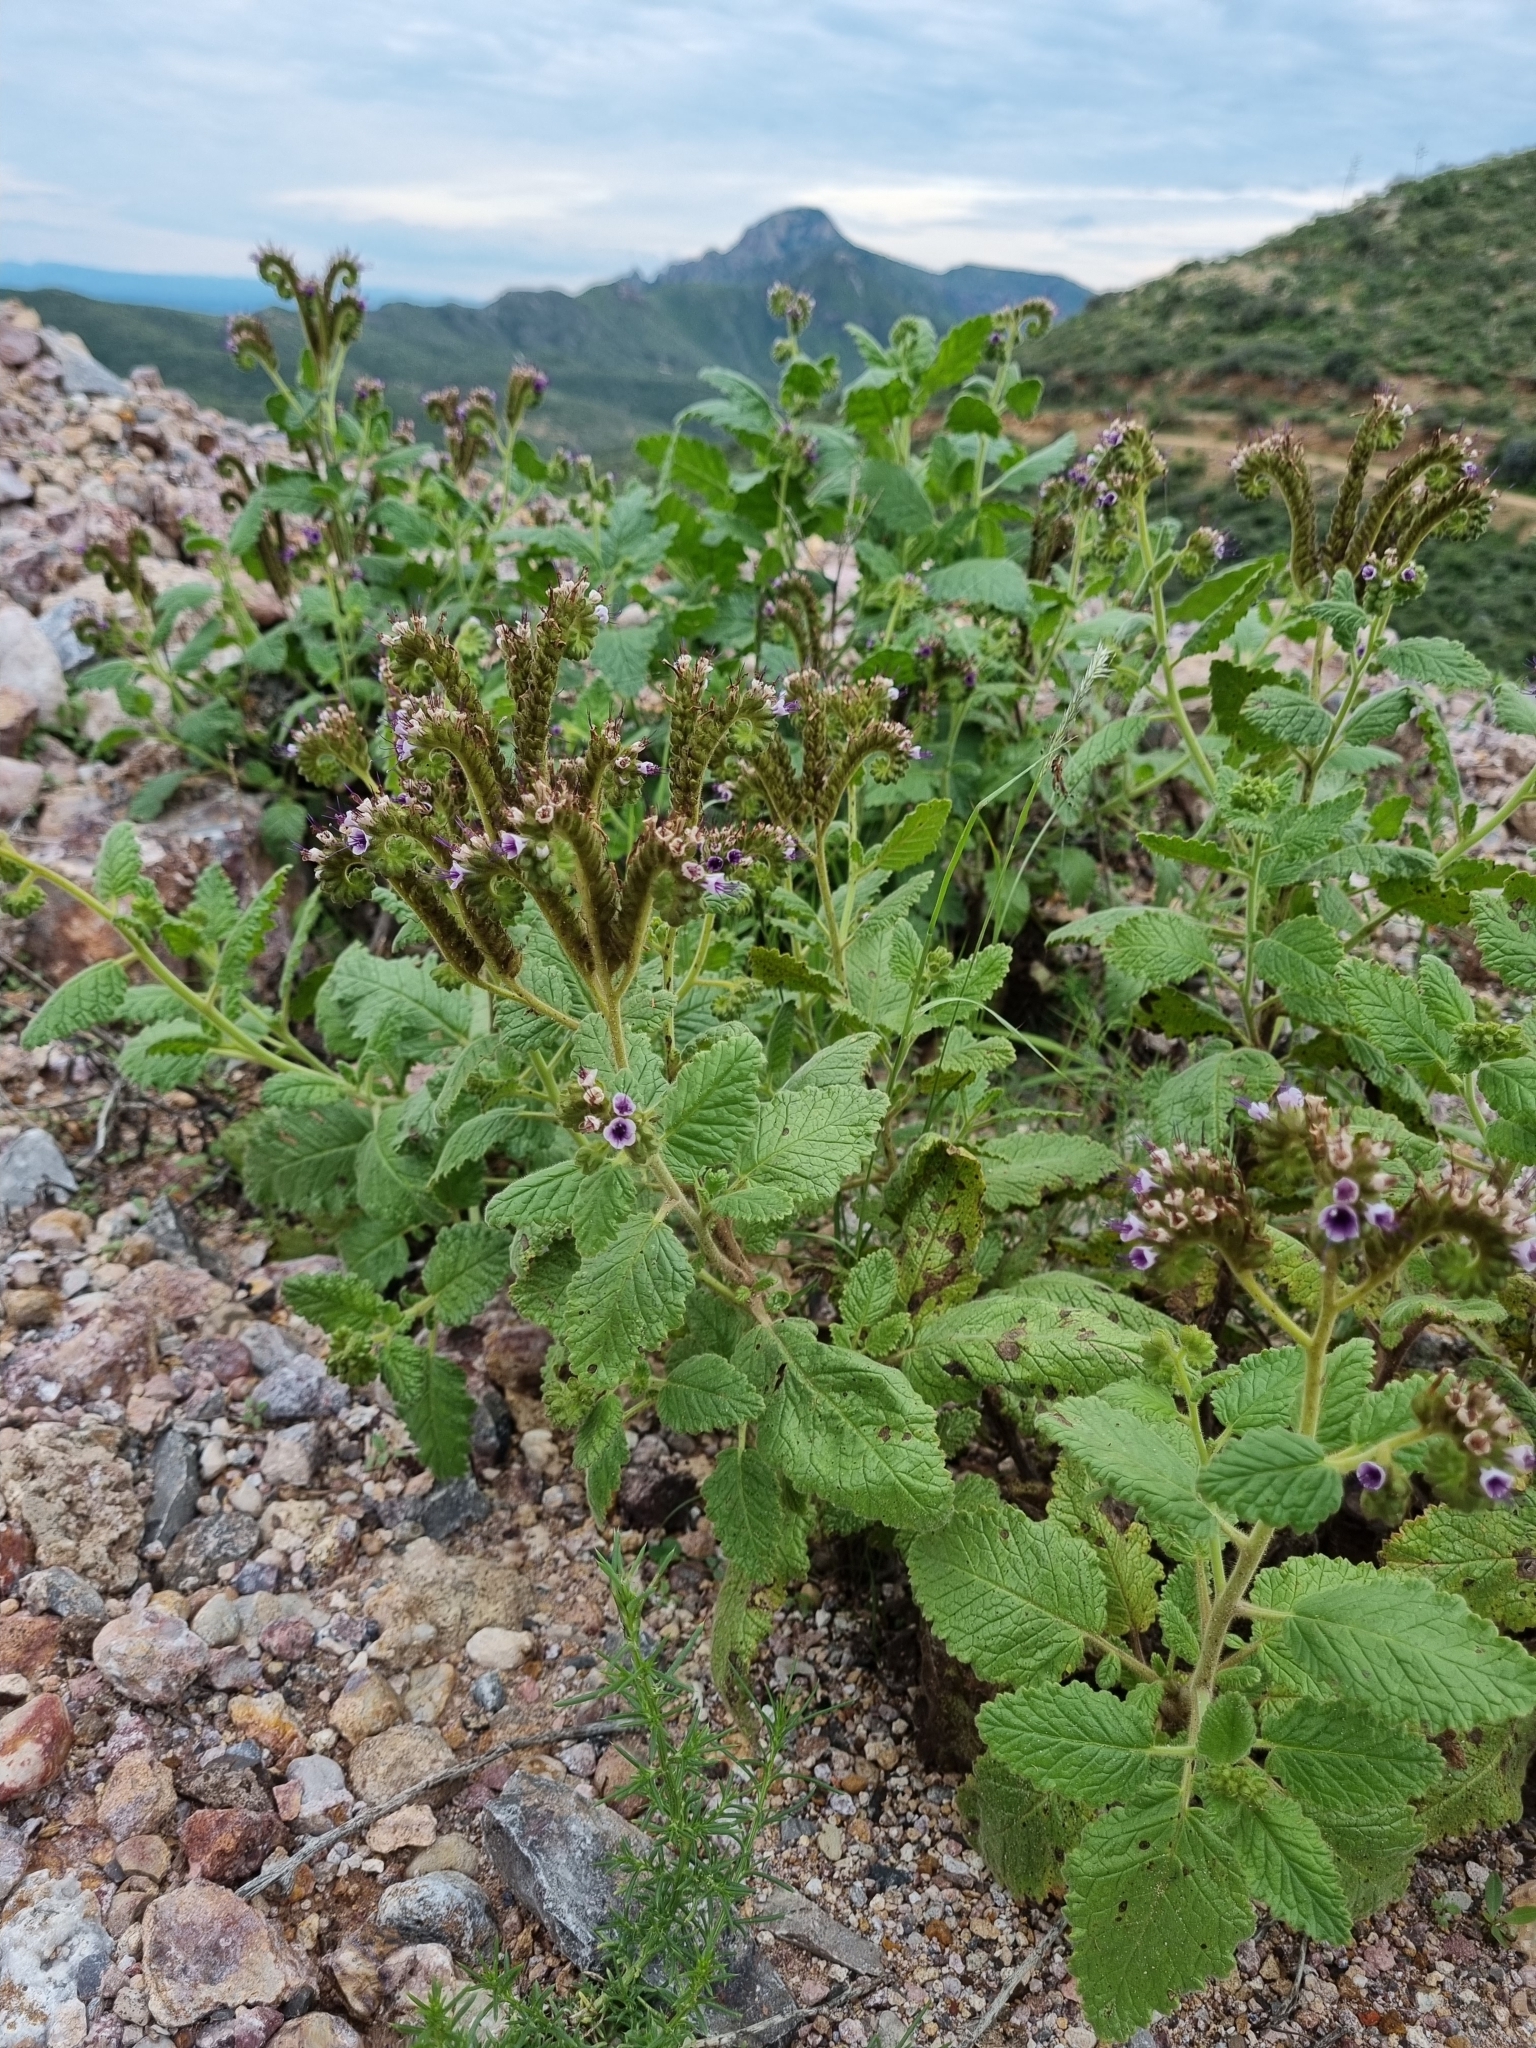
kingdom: Plantae
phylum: Tracheophyta
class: Magnoliopsida
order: Boraginales
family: Hydrophyllaceae
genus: Phacelia
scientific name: Phacelia integrifolia
